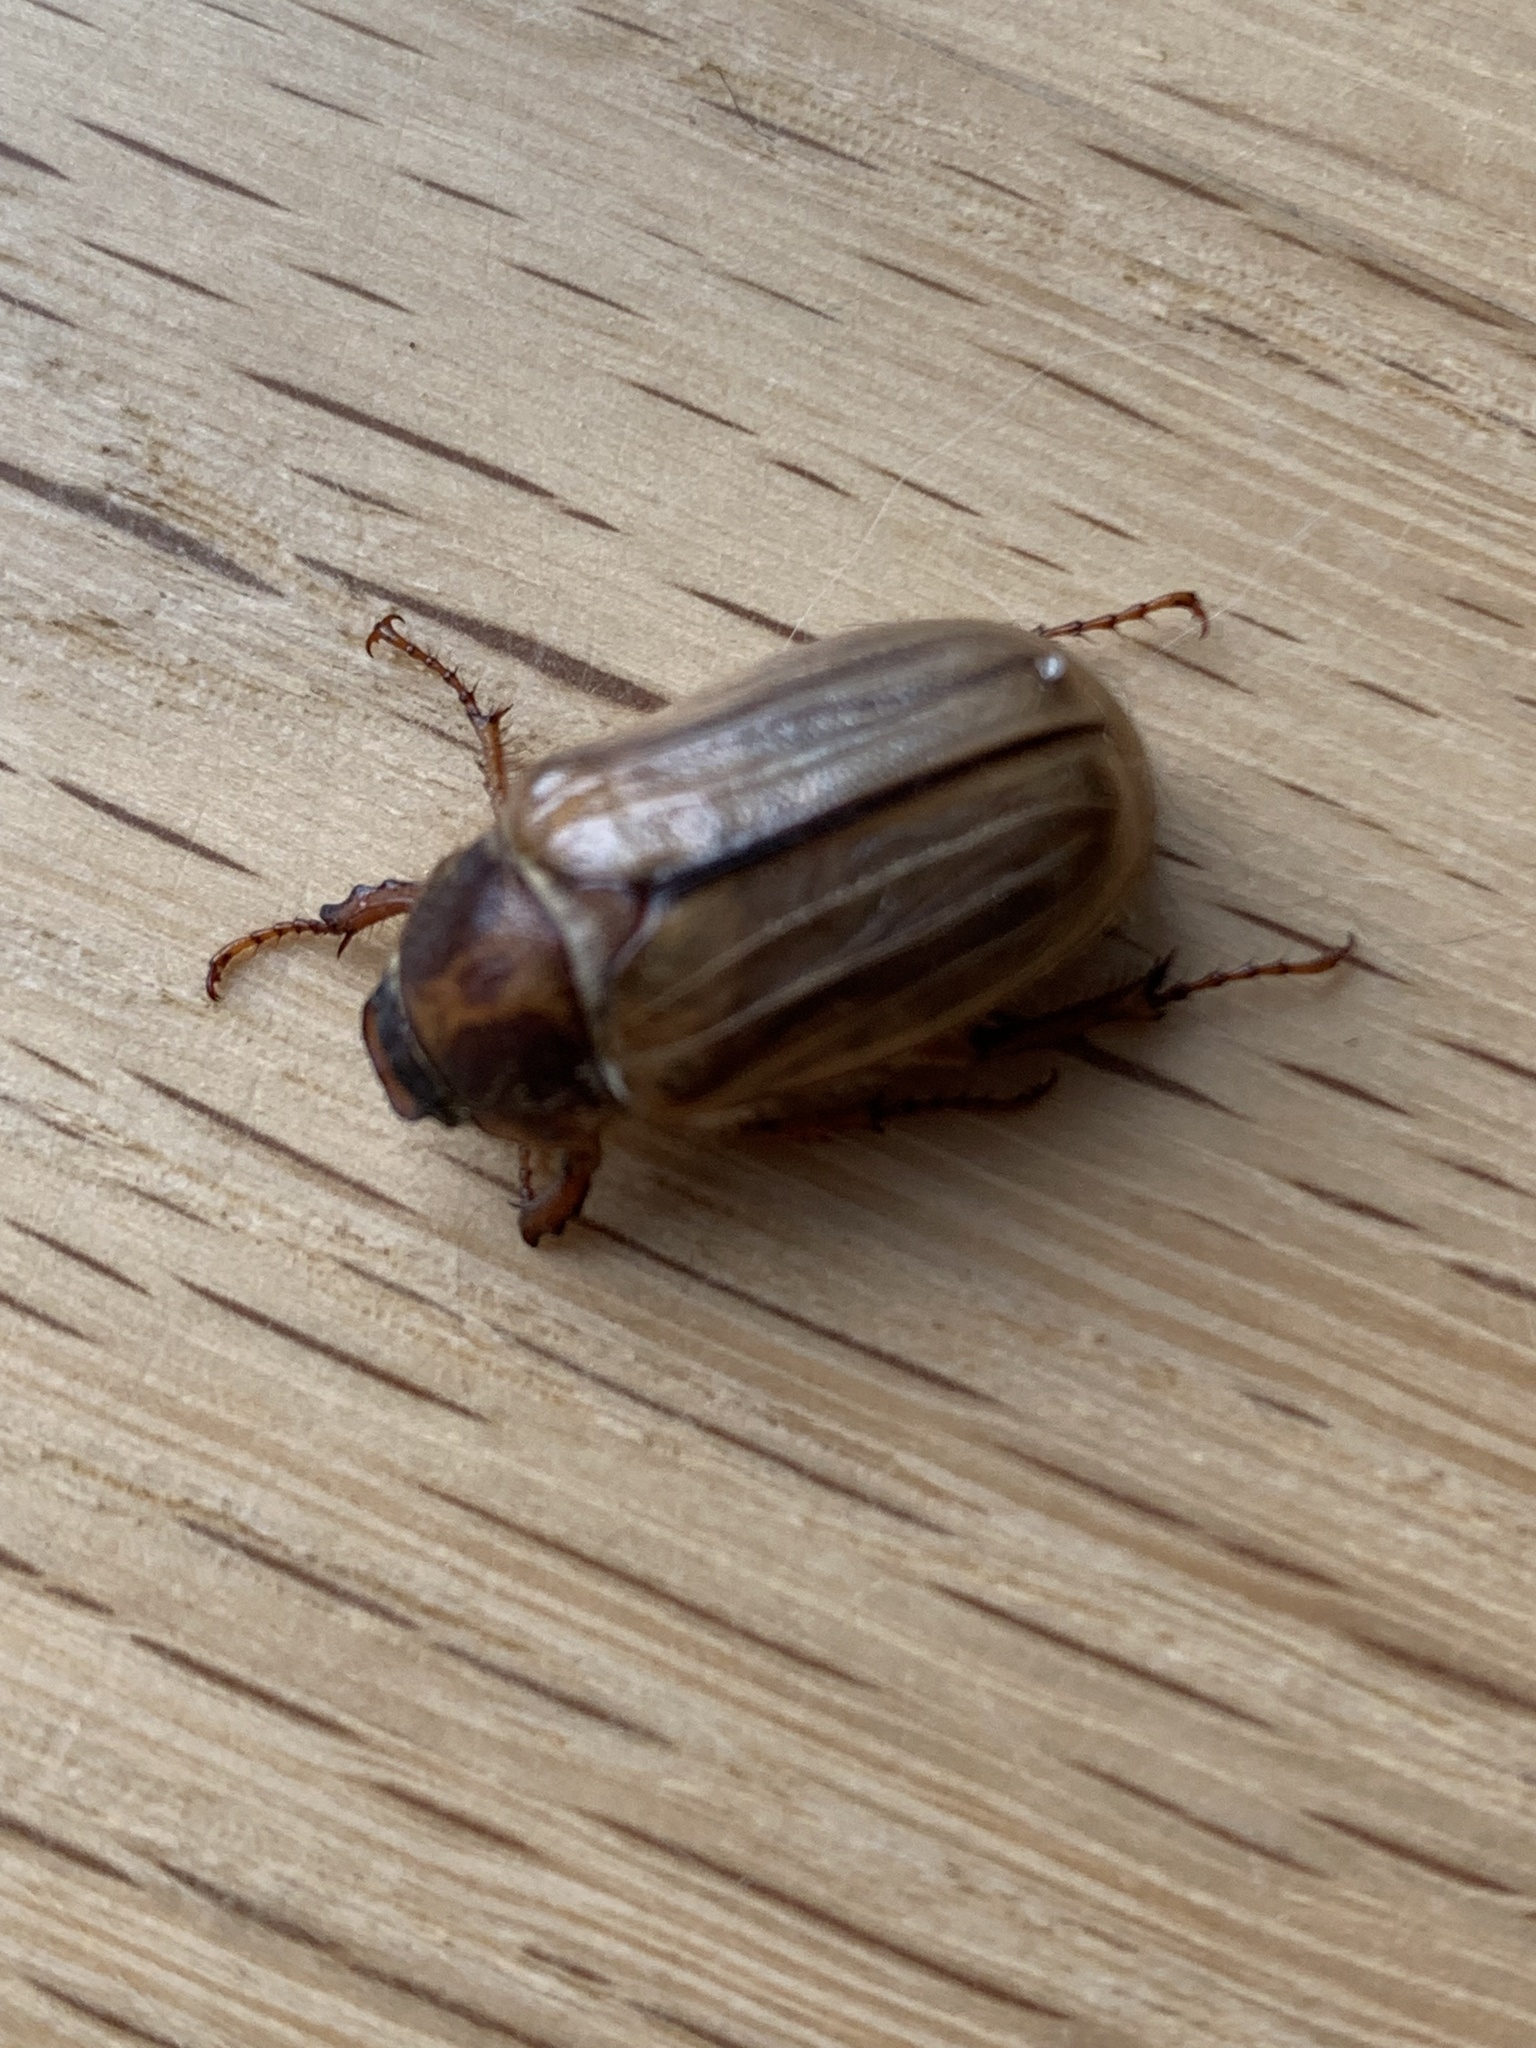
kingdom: Animalia
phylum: Arthropoda
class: Insecta
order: Coleoptera
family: Scarabaeidae
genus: Amphimallon
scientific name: Amphimallon solstitiale
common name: Summer chafer
